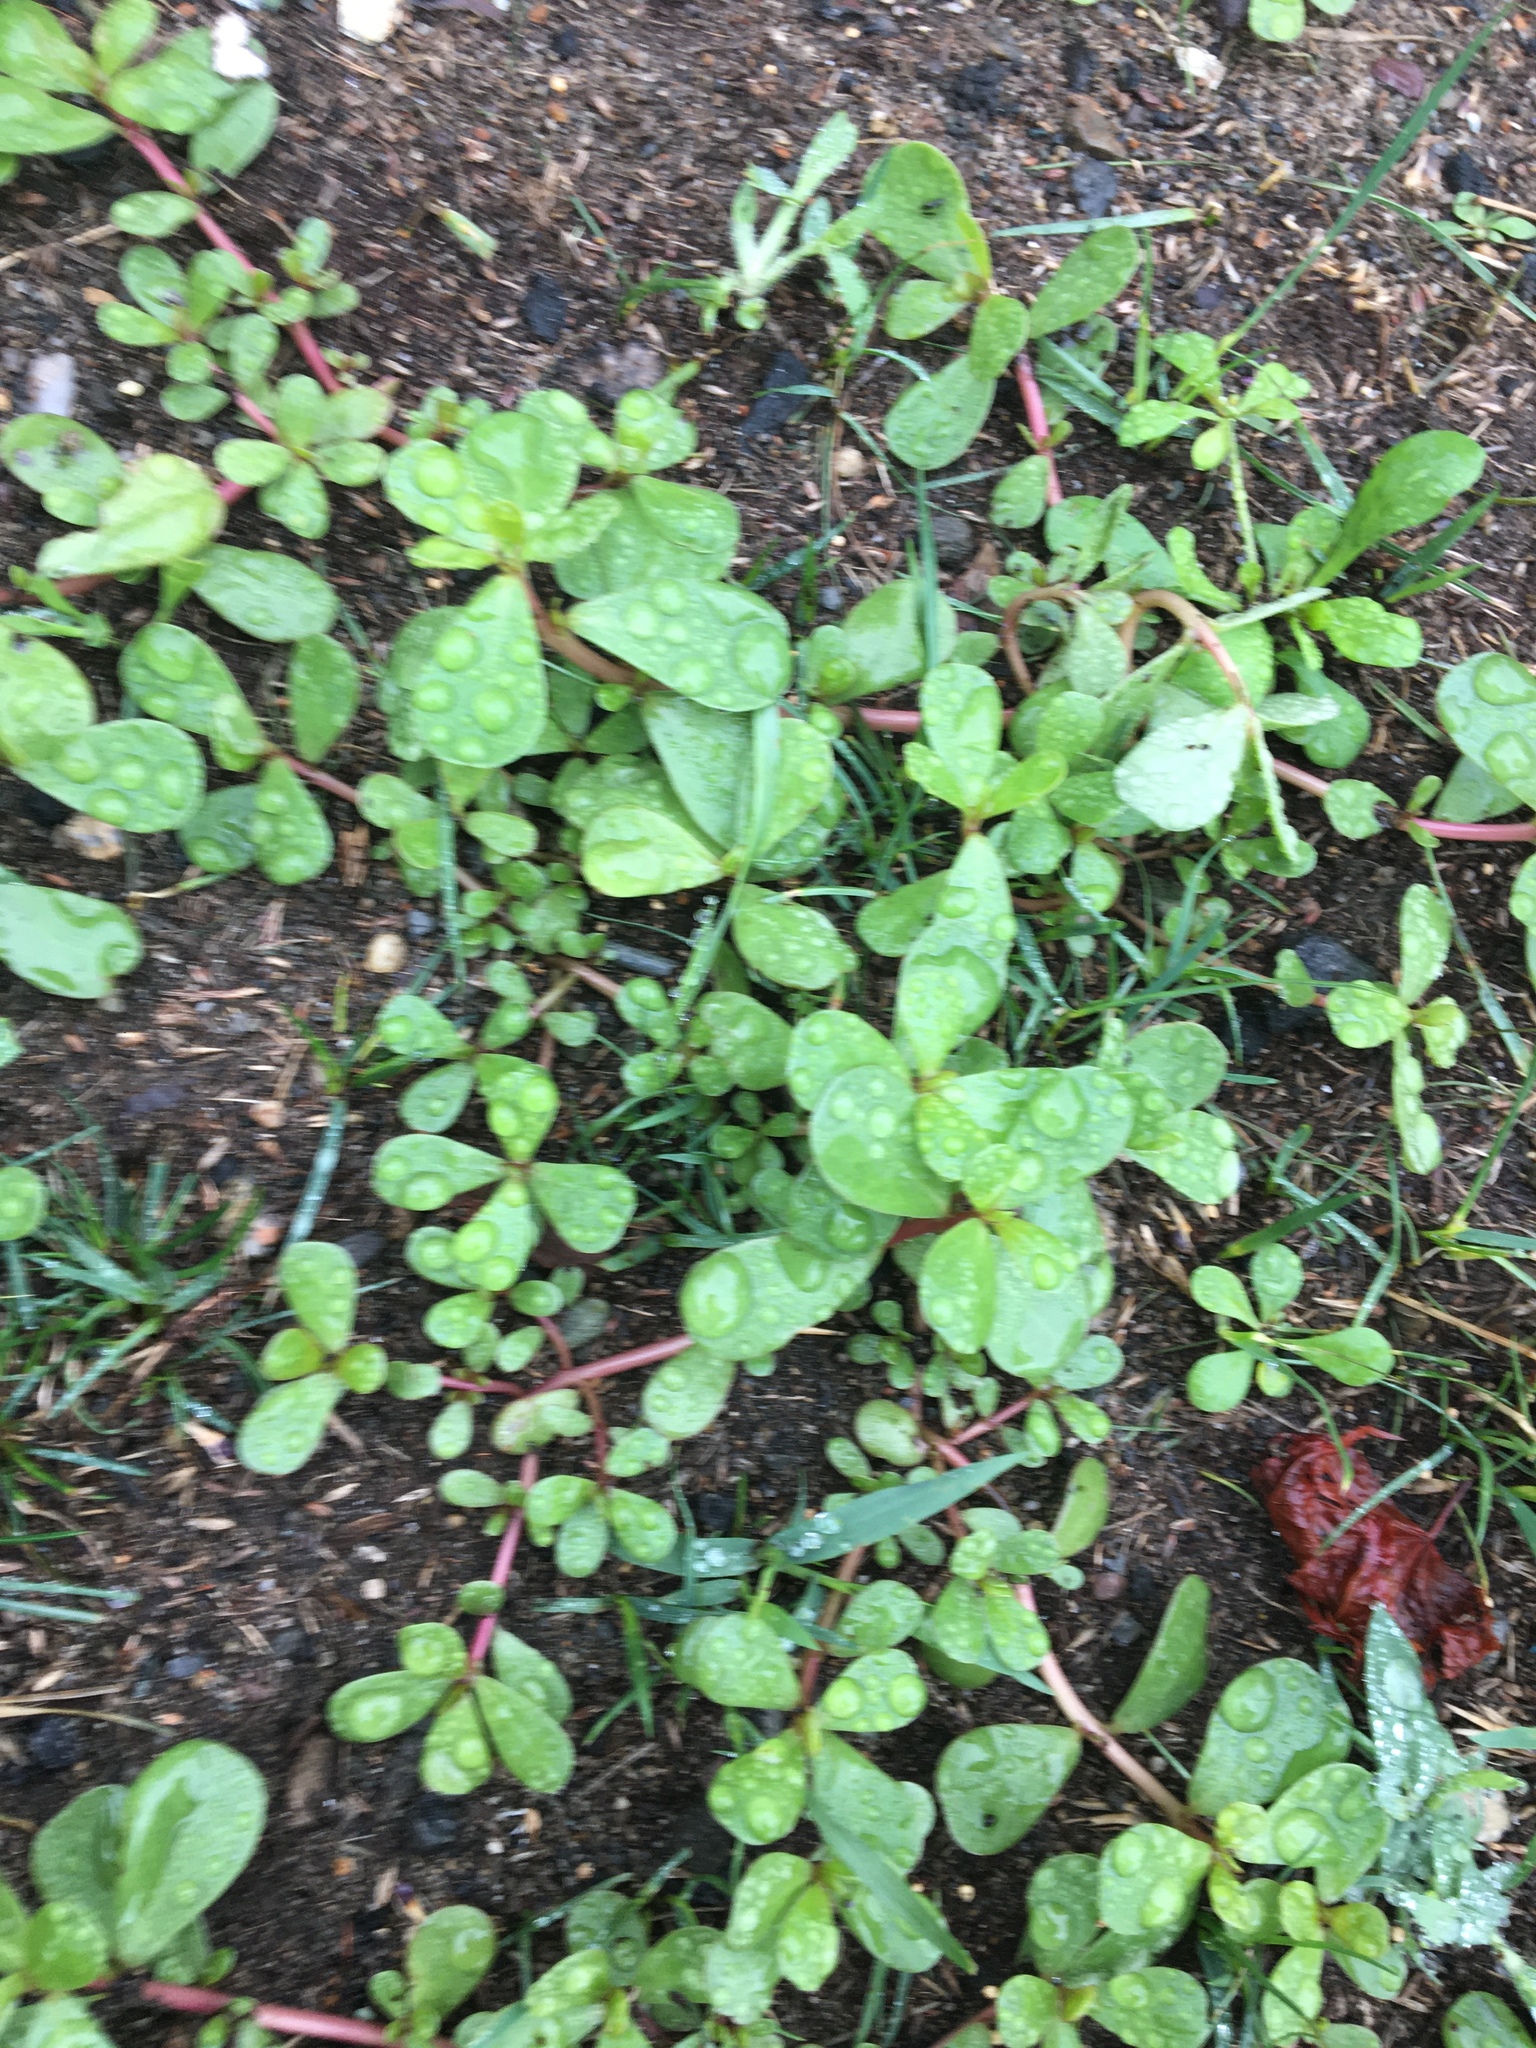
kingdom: Plantae
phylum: Tracheophyta
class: Magnoliopsida
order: Caryophyllales
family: Portulacaceae
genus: Portulaca
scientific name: Portulaca oleracea
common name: Common purslane
